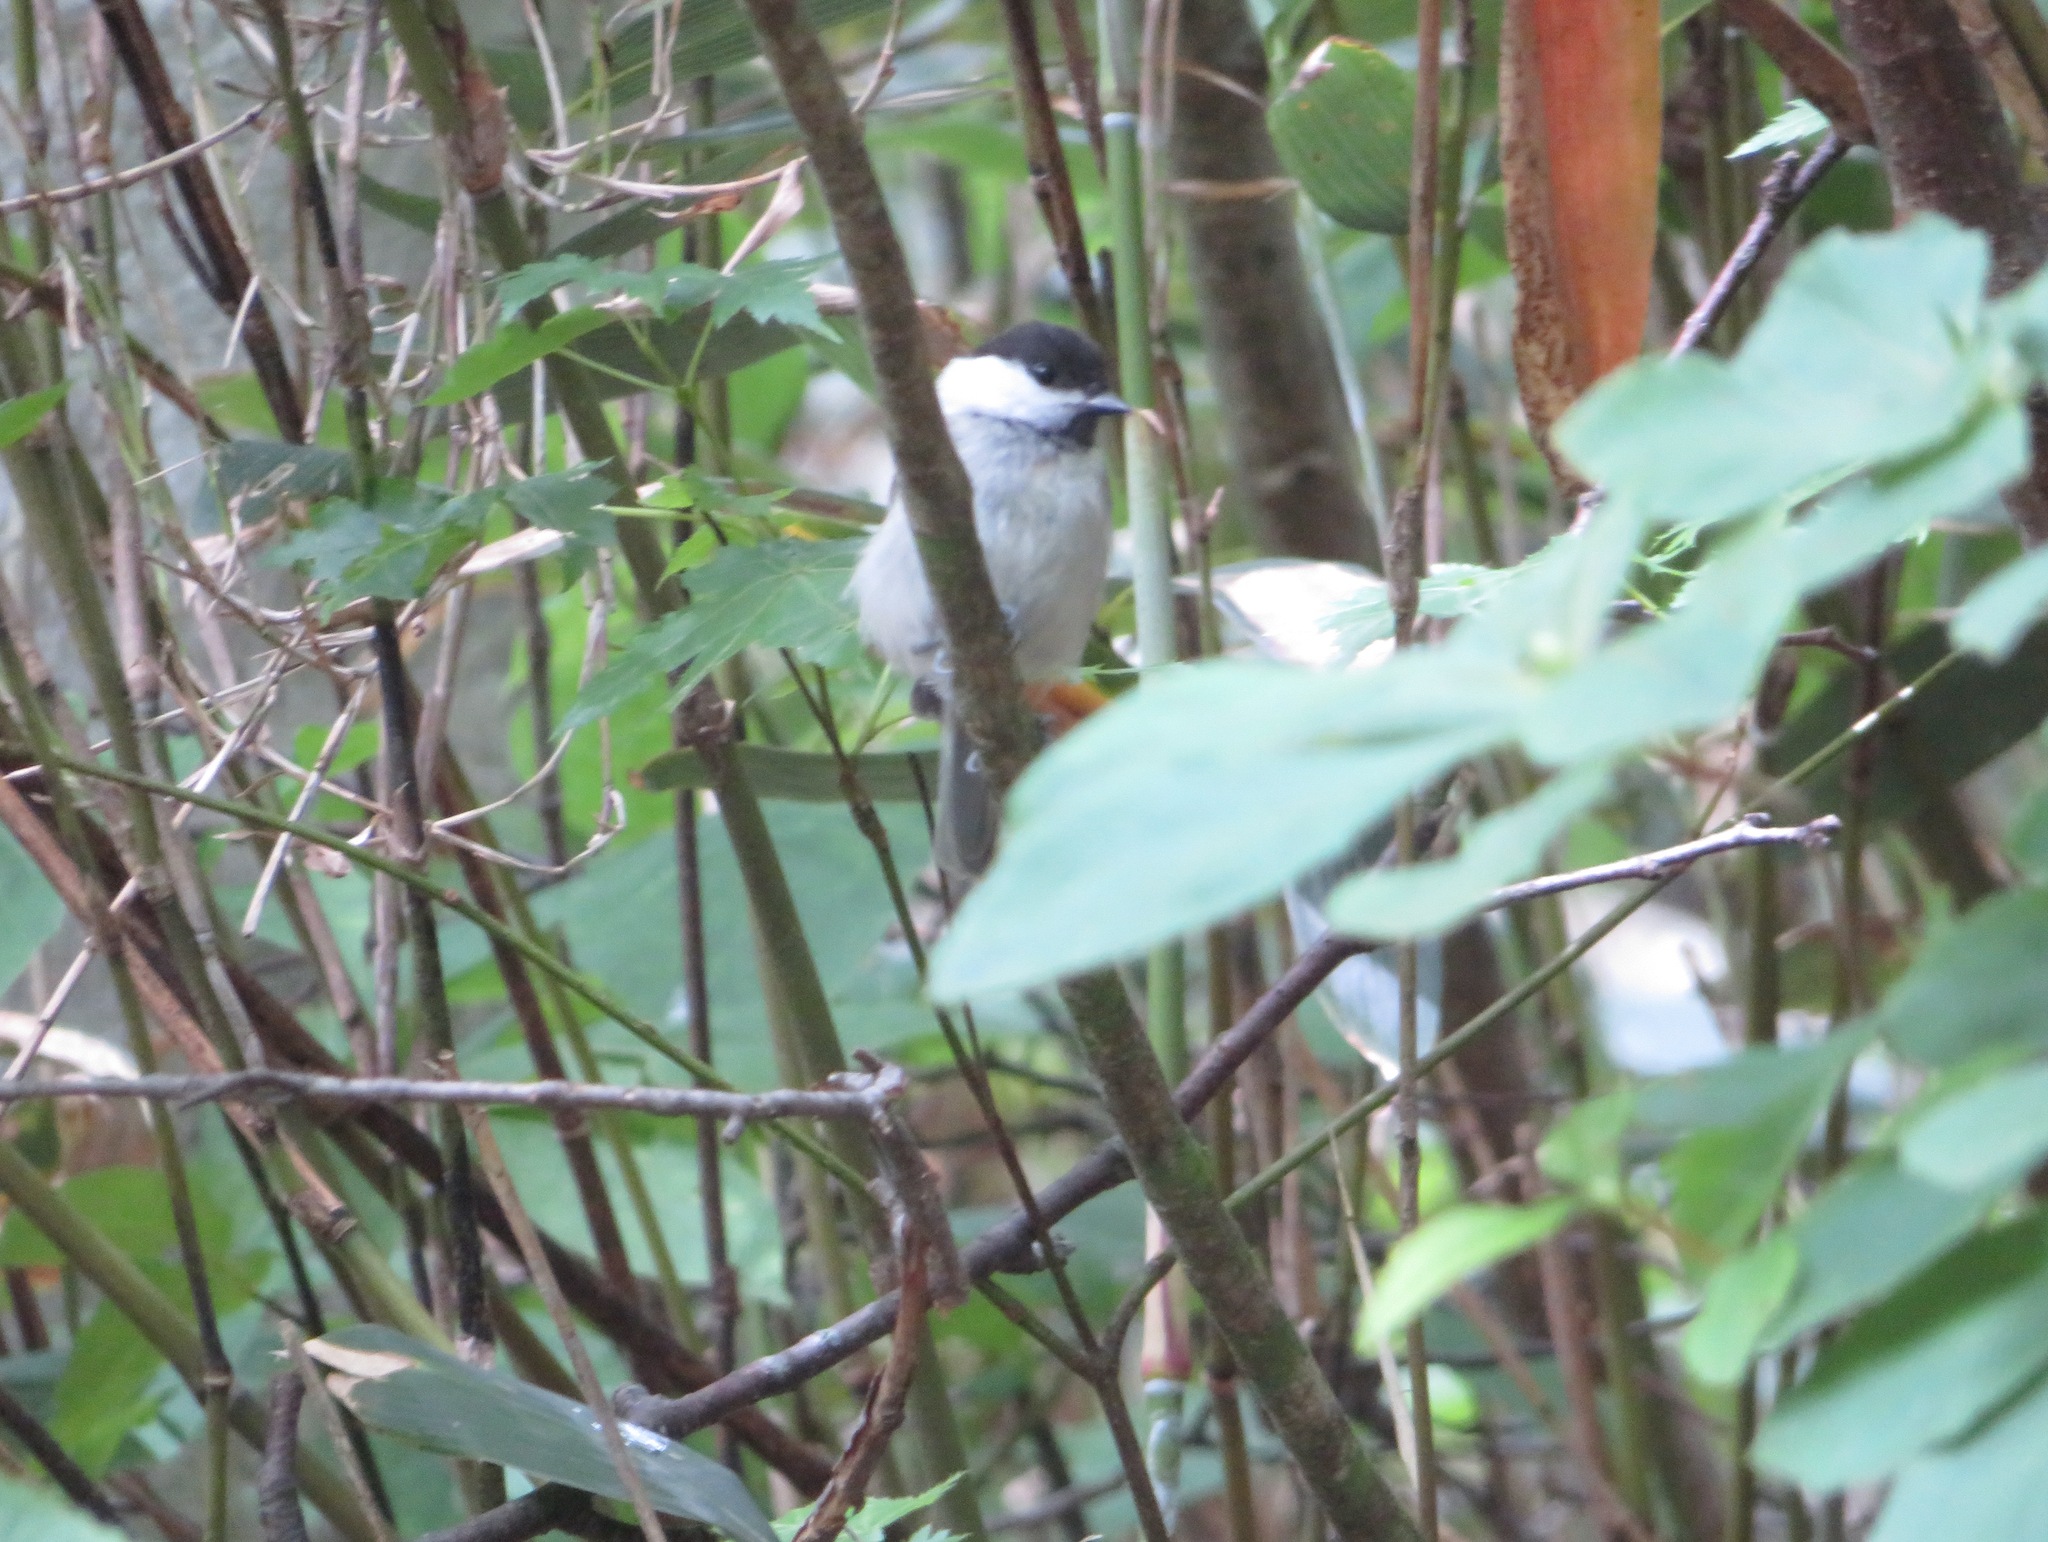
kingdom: Animalia
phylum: Chordata
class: Aves
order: Passeriformes
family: Paridae
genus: Poecile
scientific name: Poecile montanus
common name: Willow tit
